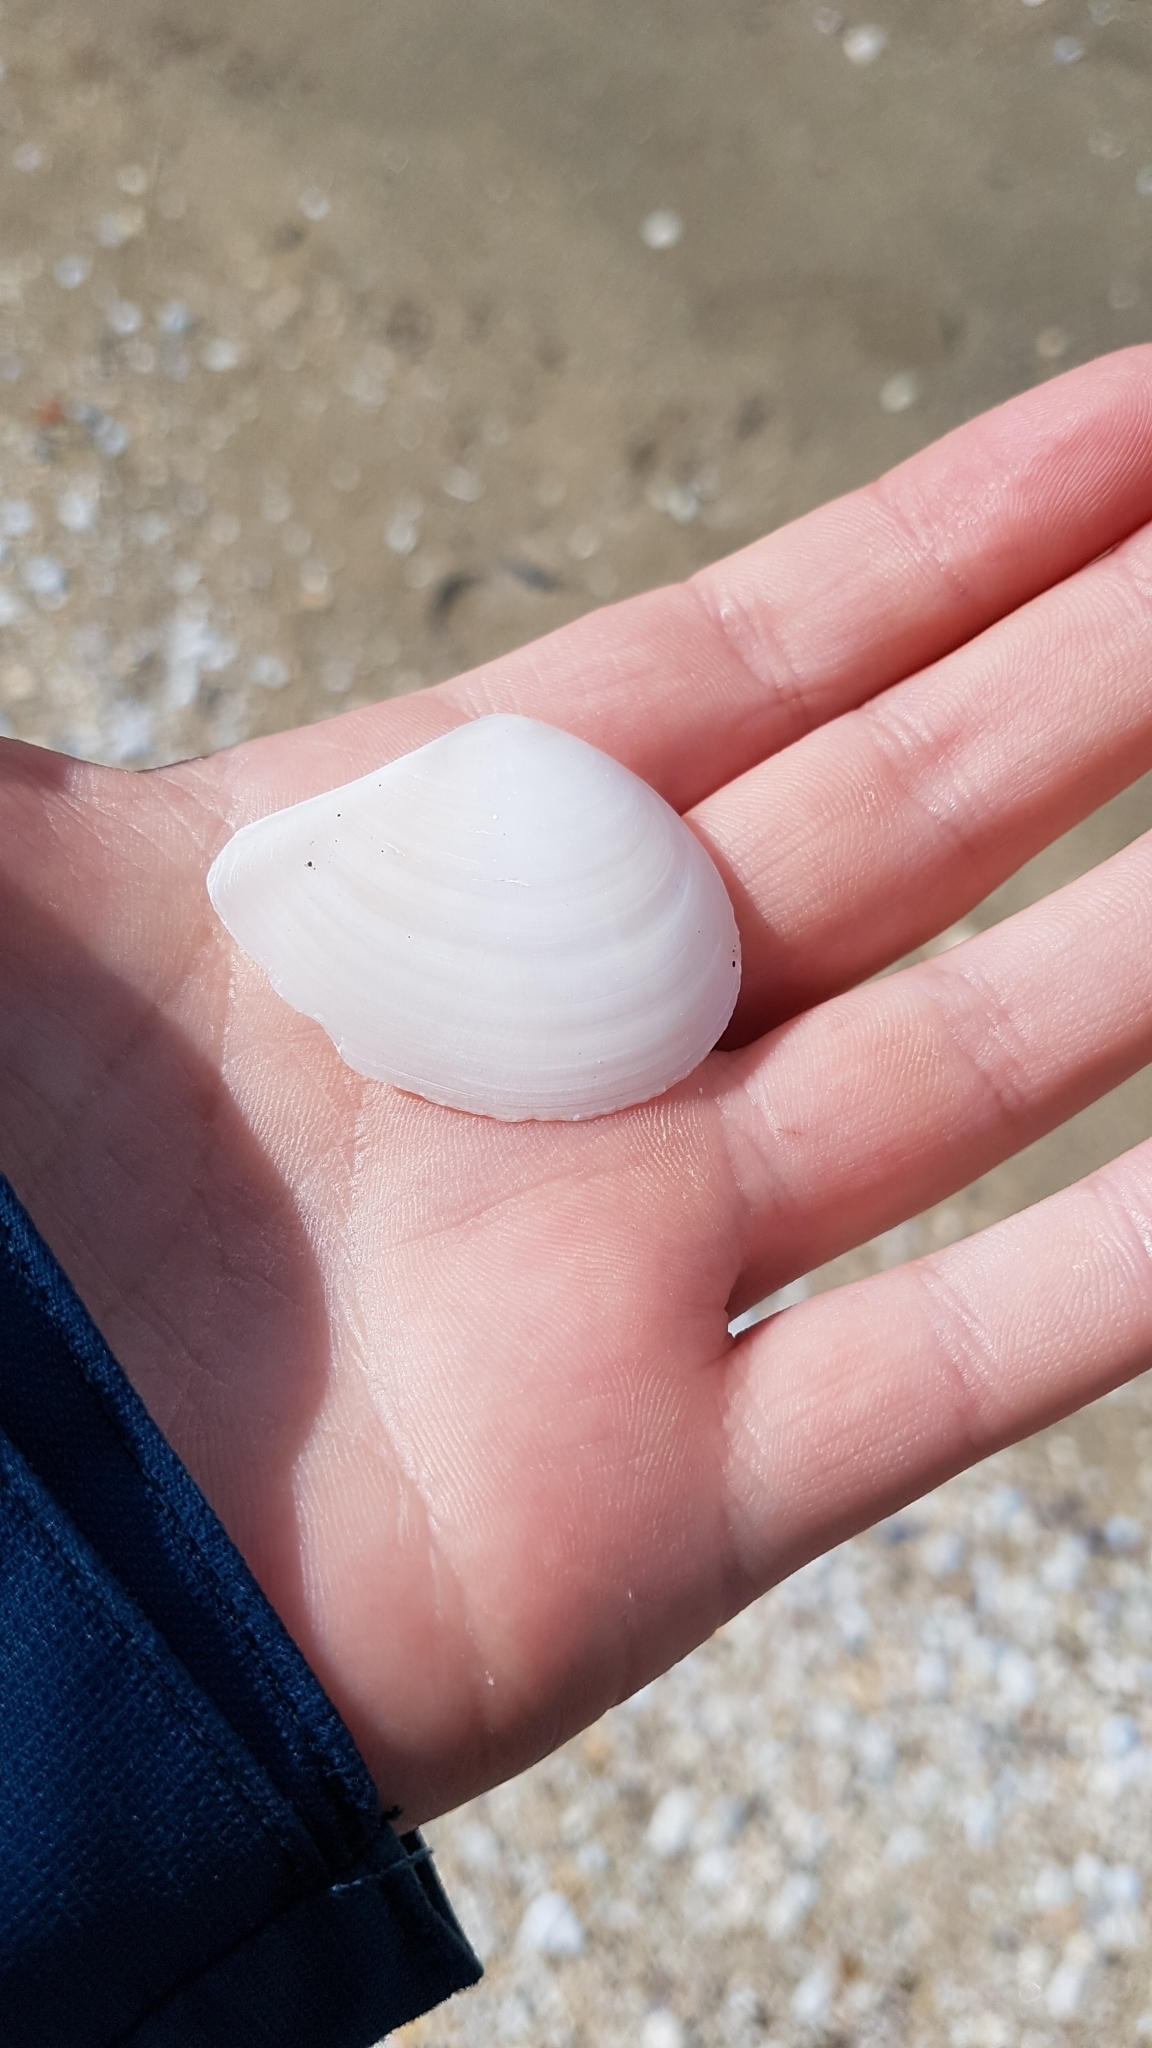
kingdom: Animalia
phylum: Mollusca
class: Bivalvia
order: Cardiida
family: Tellinidae
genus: Macomona
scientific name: Macomona liliana
